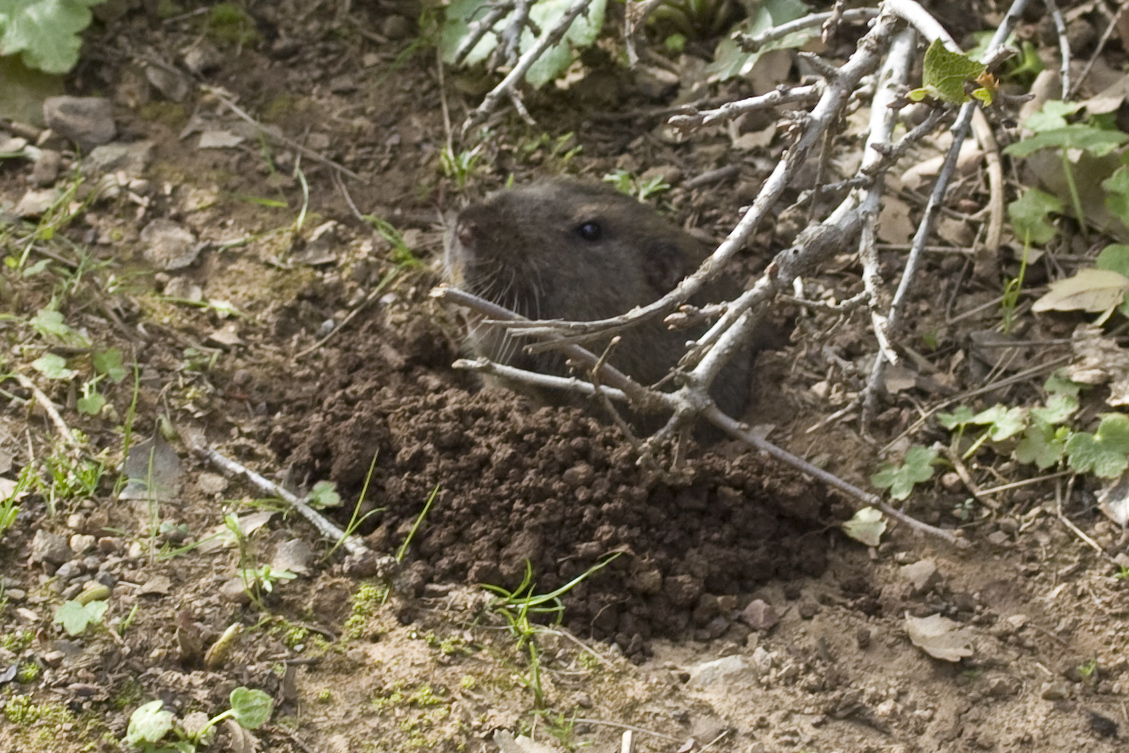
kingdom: Animalia
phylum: Chordata
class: Mammalia
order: Rodentia
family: Geomyidae
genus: Thomomys
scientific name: Thomomys bottae
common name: Botta's pocket gopher
